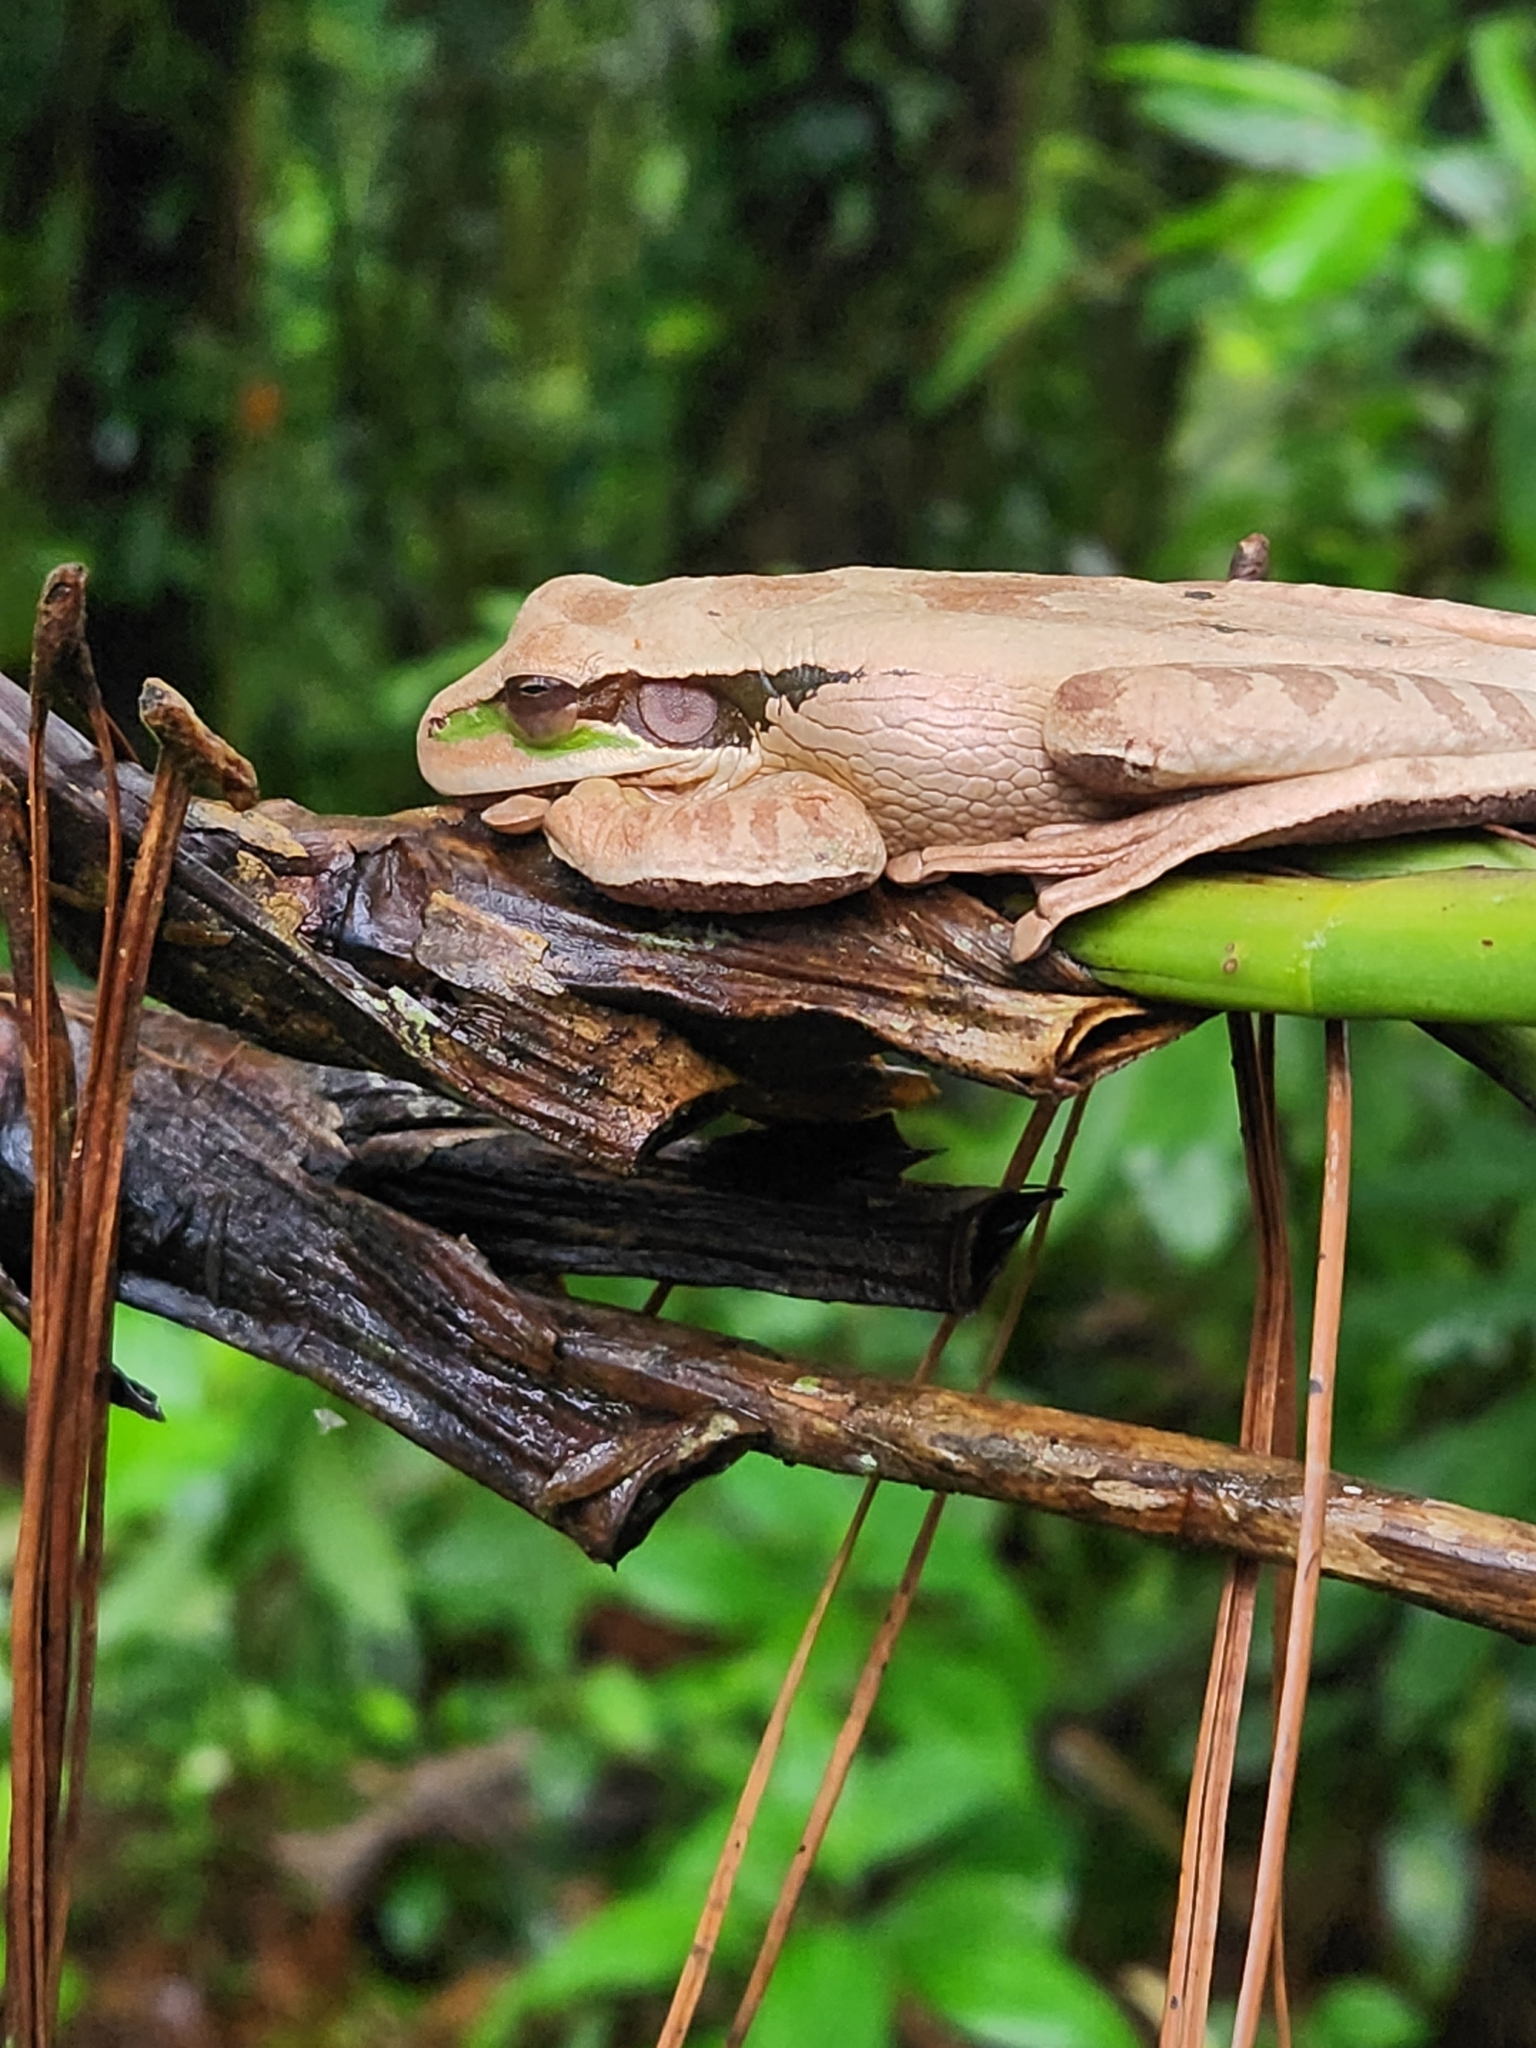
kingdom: Animalia
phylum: Chordata
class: Amphibia
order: Anura
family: Hylidae
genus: Smilisca
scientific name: Smilisca phaeota
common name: Central american smilisca
